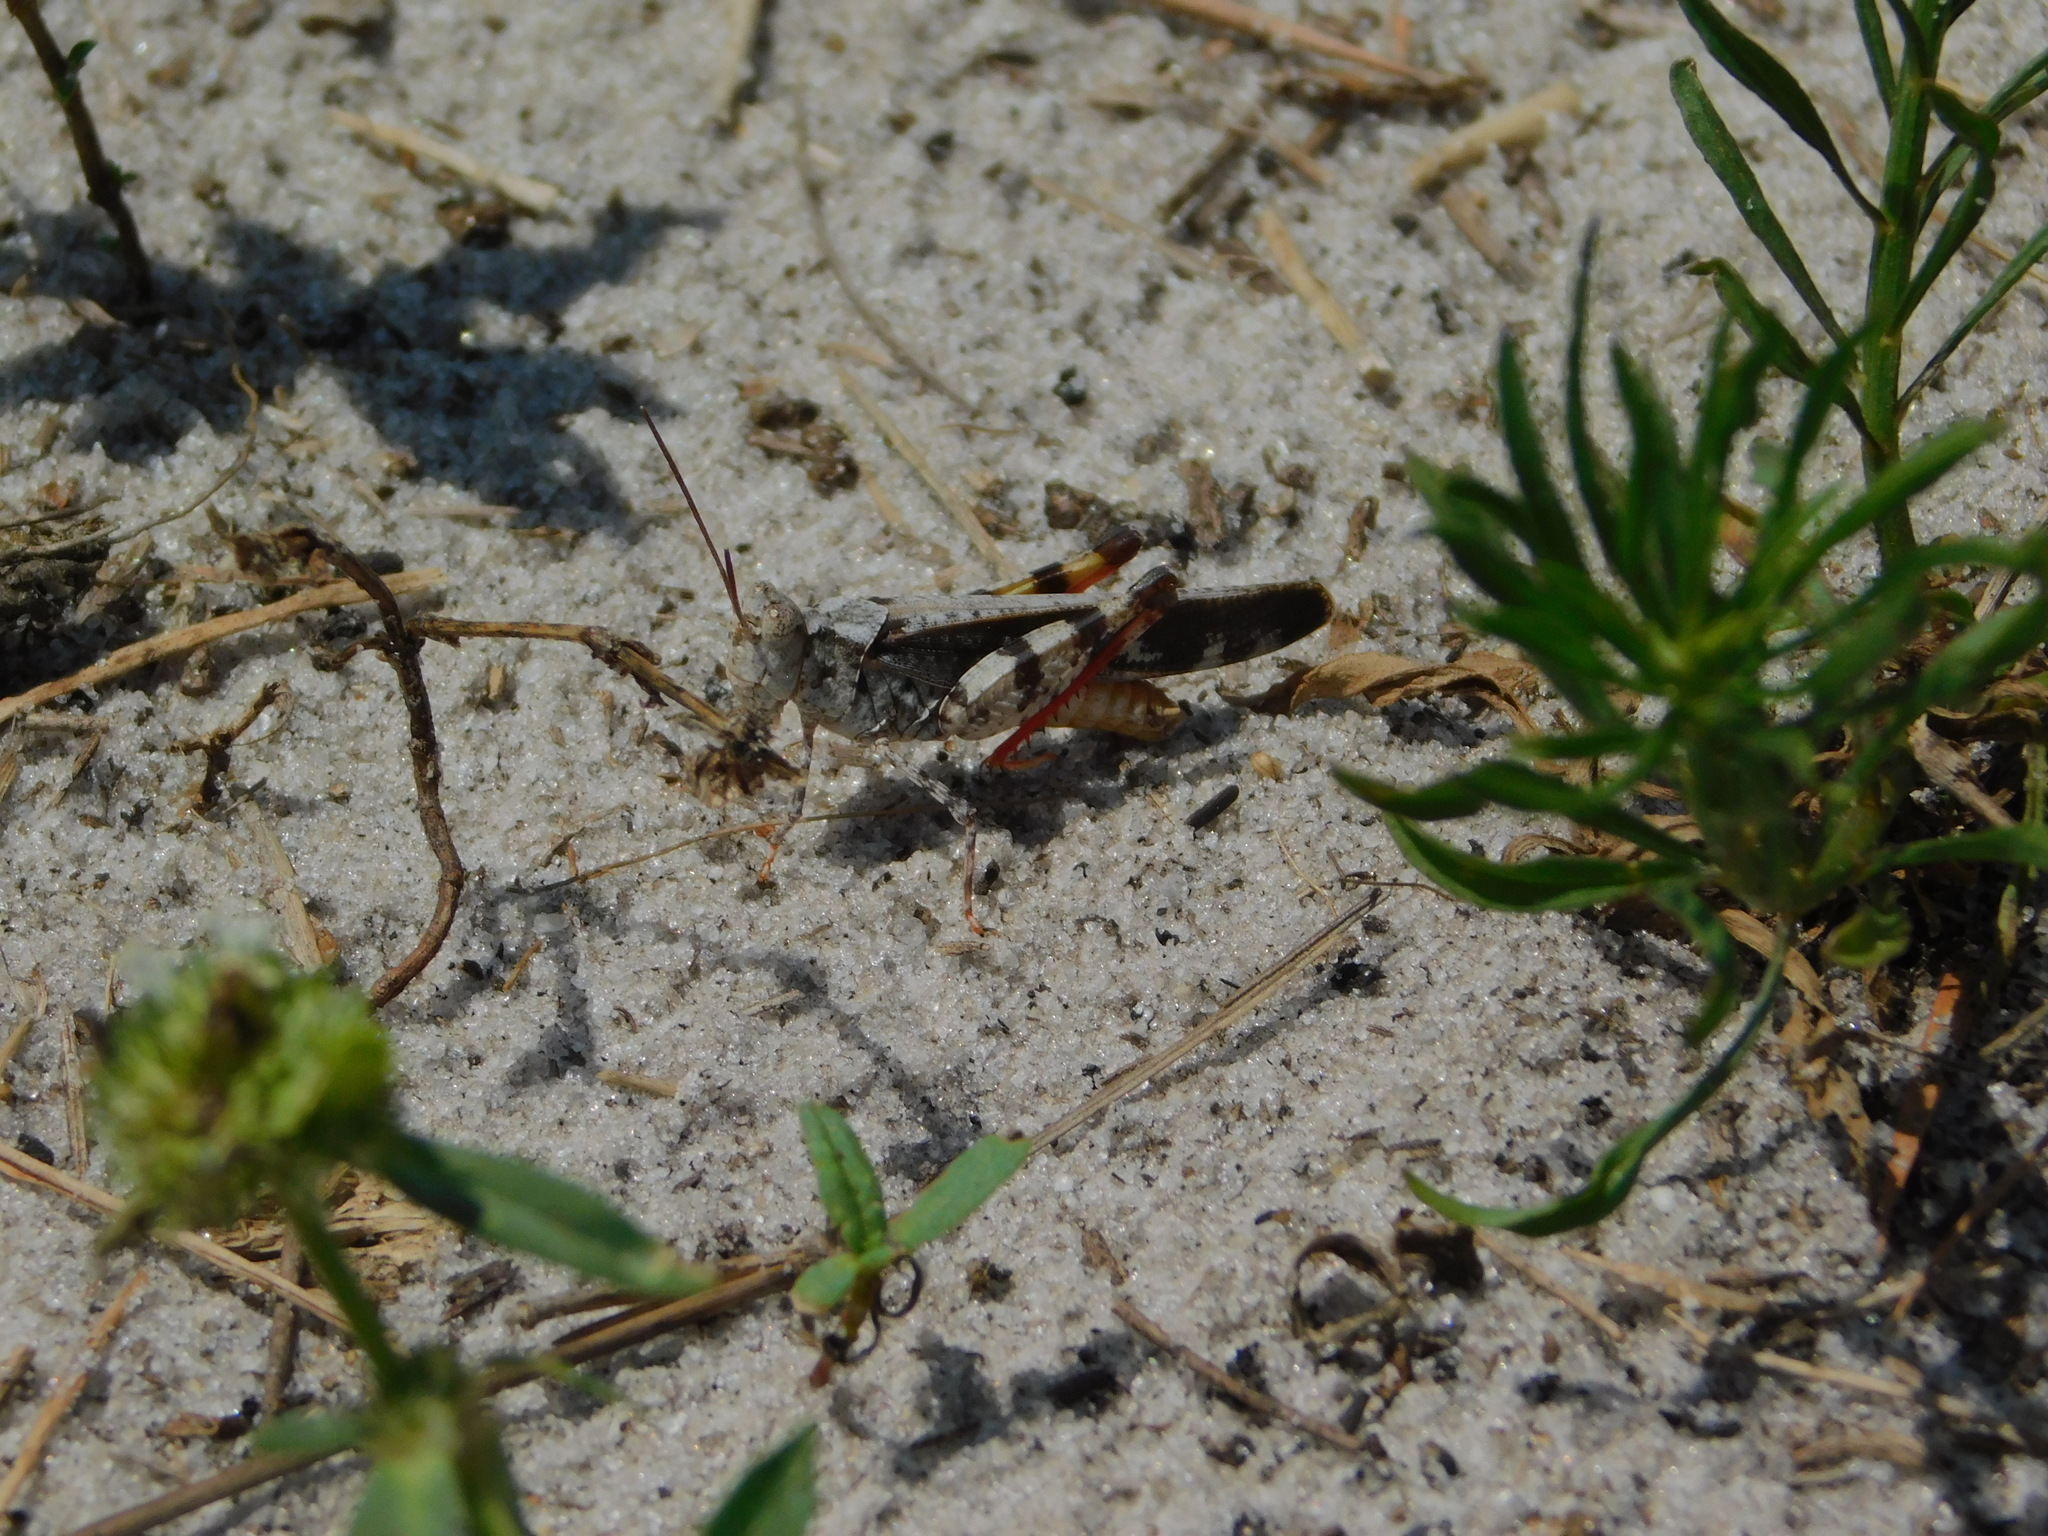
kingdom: Animalia
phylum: Arthropoda
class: Insecta
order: Orthoptera
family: Acrididae
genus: Spharagemon
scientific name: Spharagemon marmoratum
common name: Marbled grasshopper
